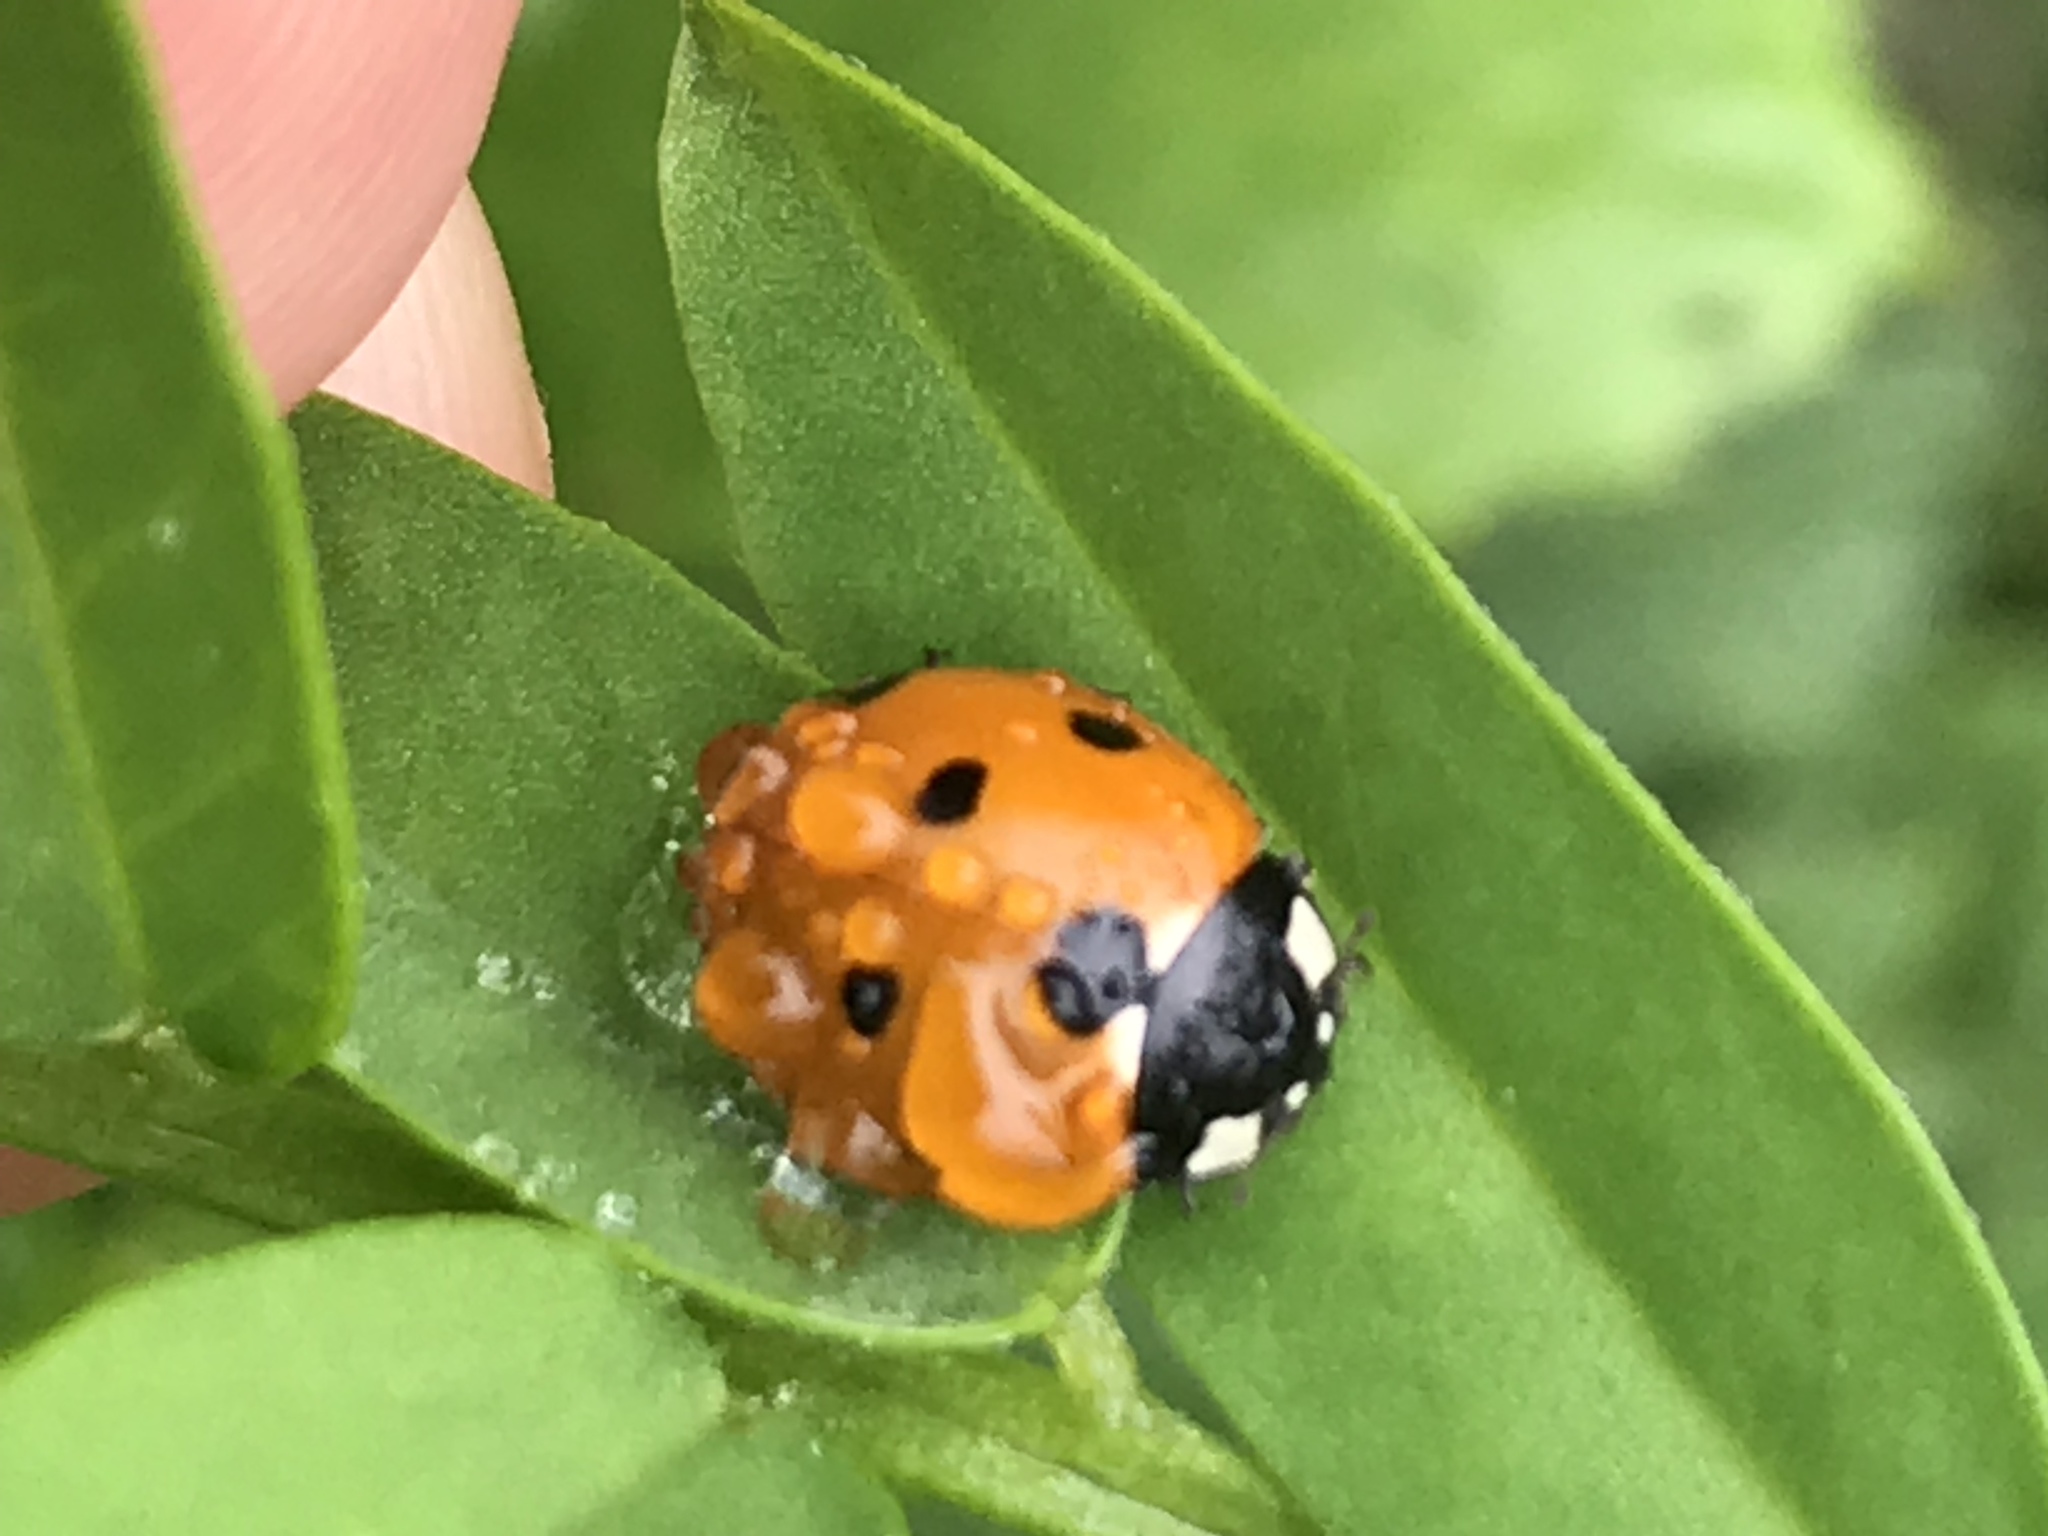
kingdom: Animalia
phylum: Arthropoda
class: Insecta
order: Coleoptera
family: Coccinellidae
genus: Coccinella
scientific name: Coccinella septempunctata
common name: Sevenspotted lady beetle
